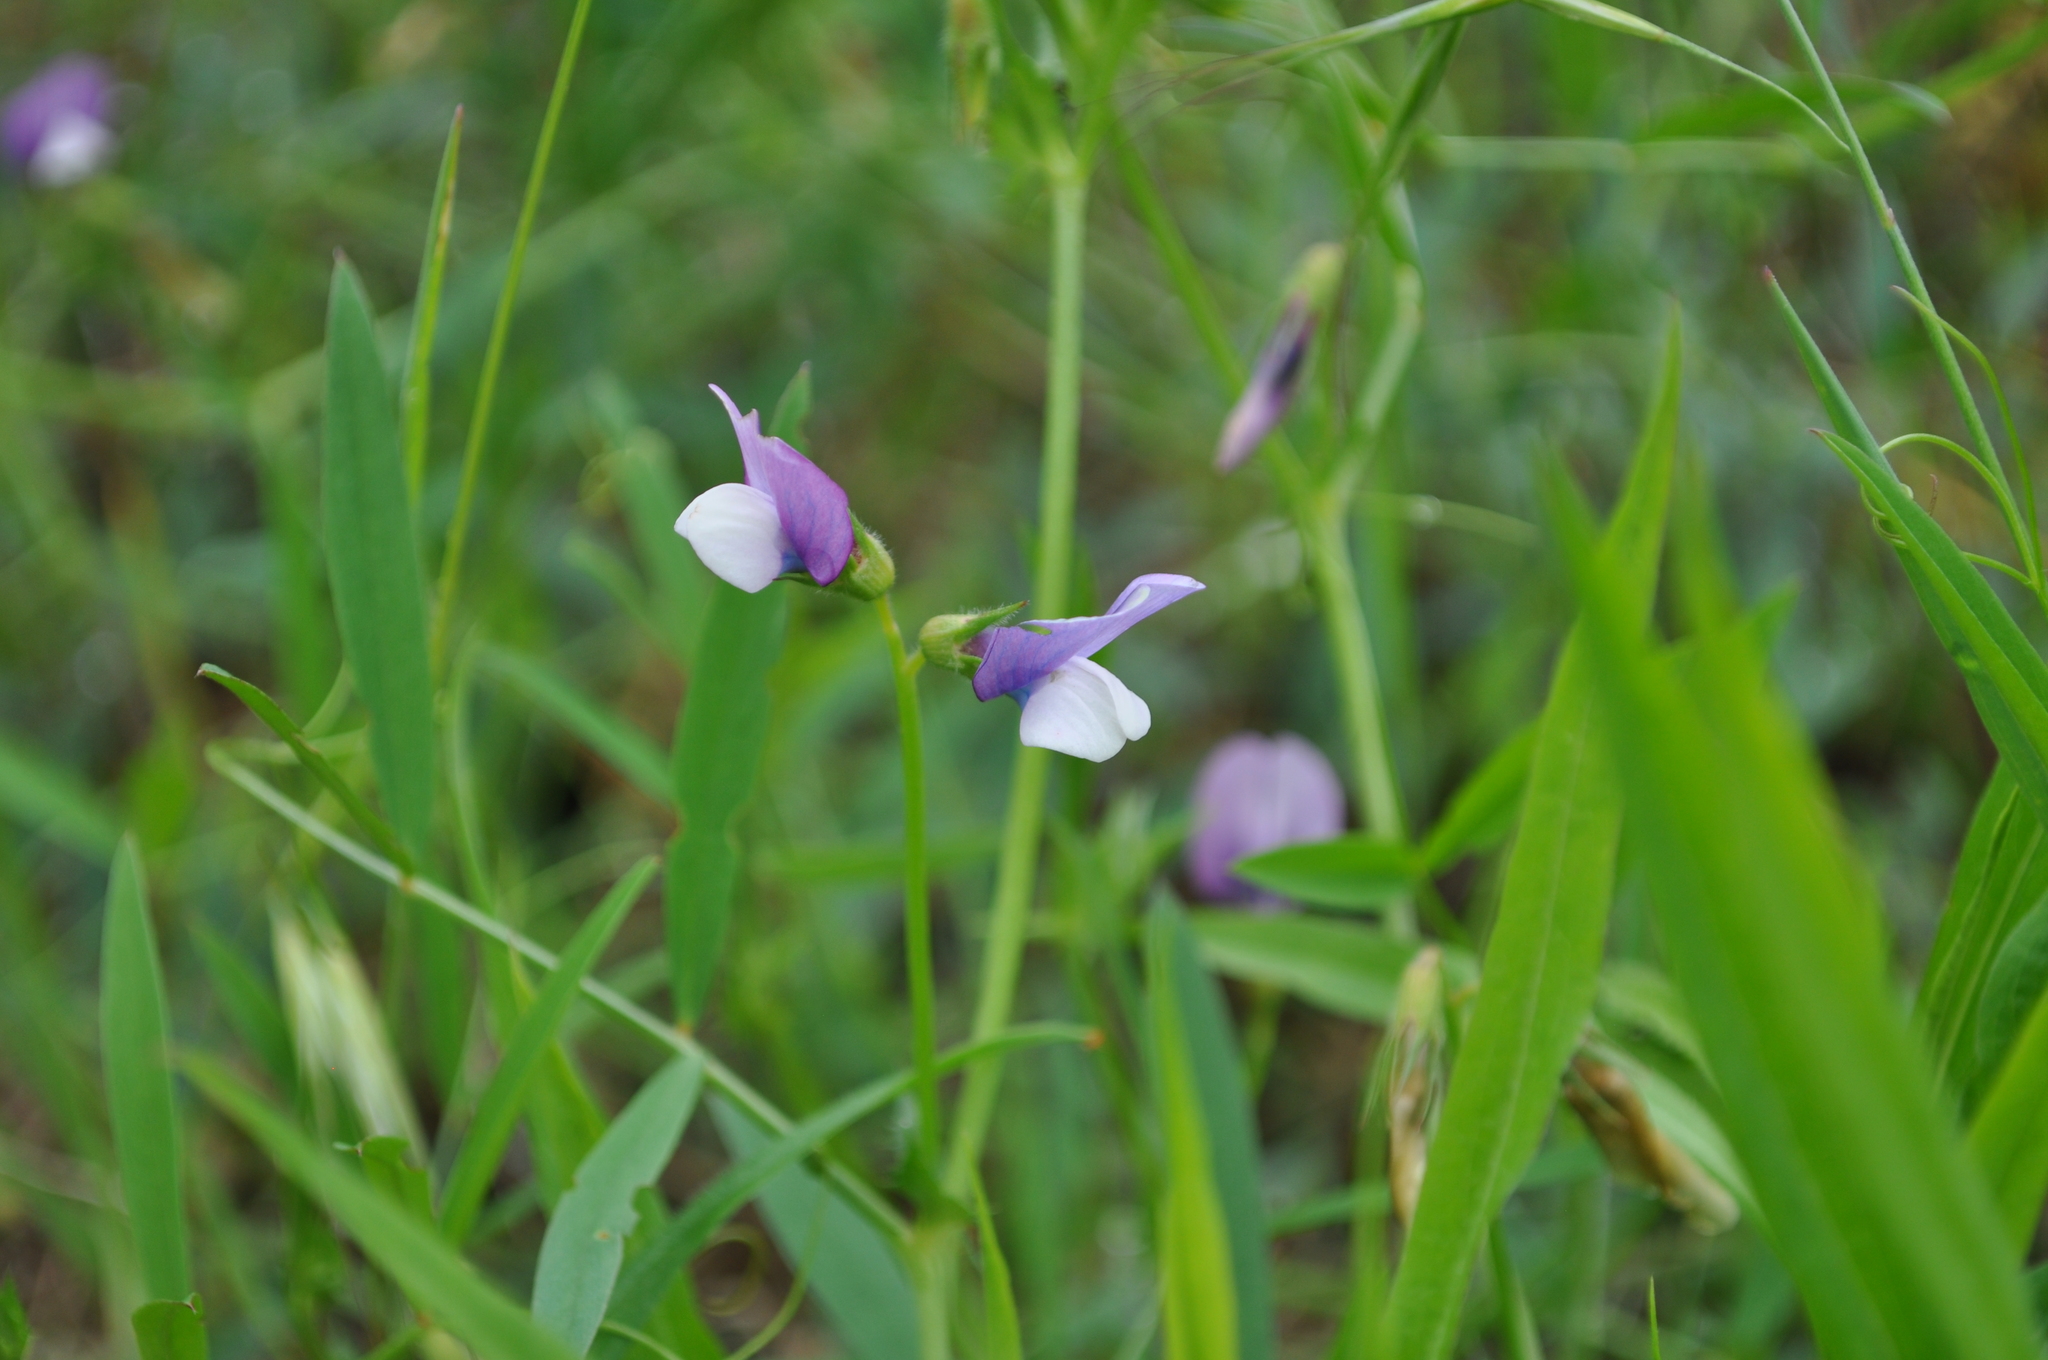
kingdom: Plantae
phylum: Tracheophyta
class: Magnoliopsida
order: Fabales
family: Fabaceae
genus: Vicia
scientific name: Vicia bithynica
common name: Bithynian vetch
